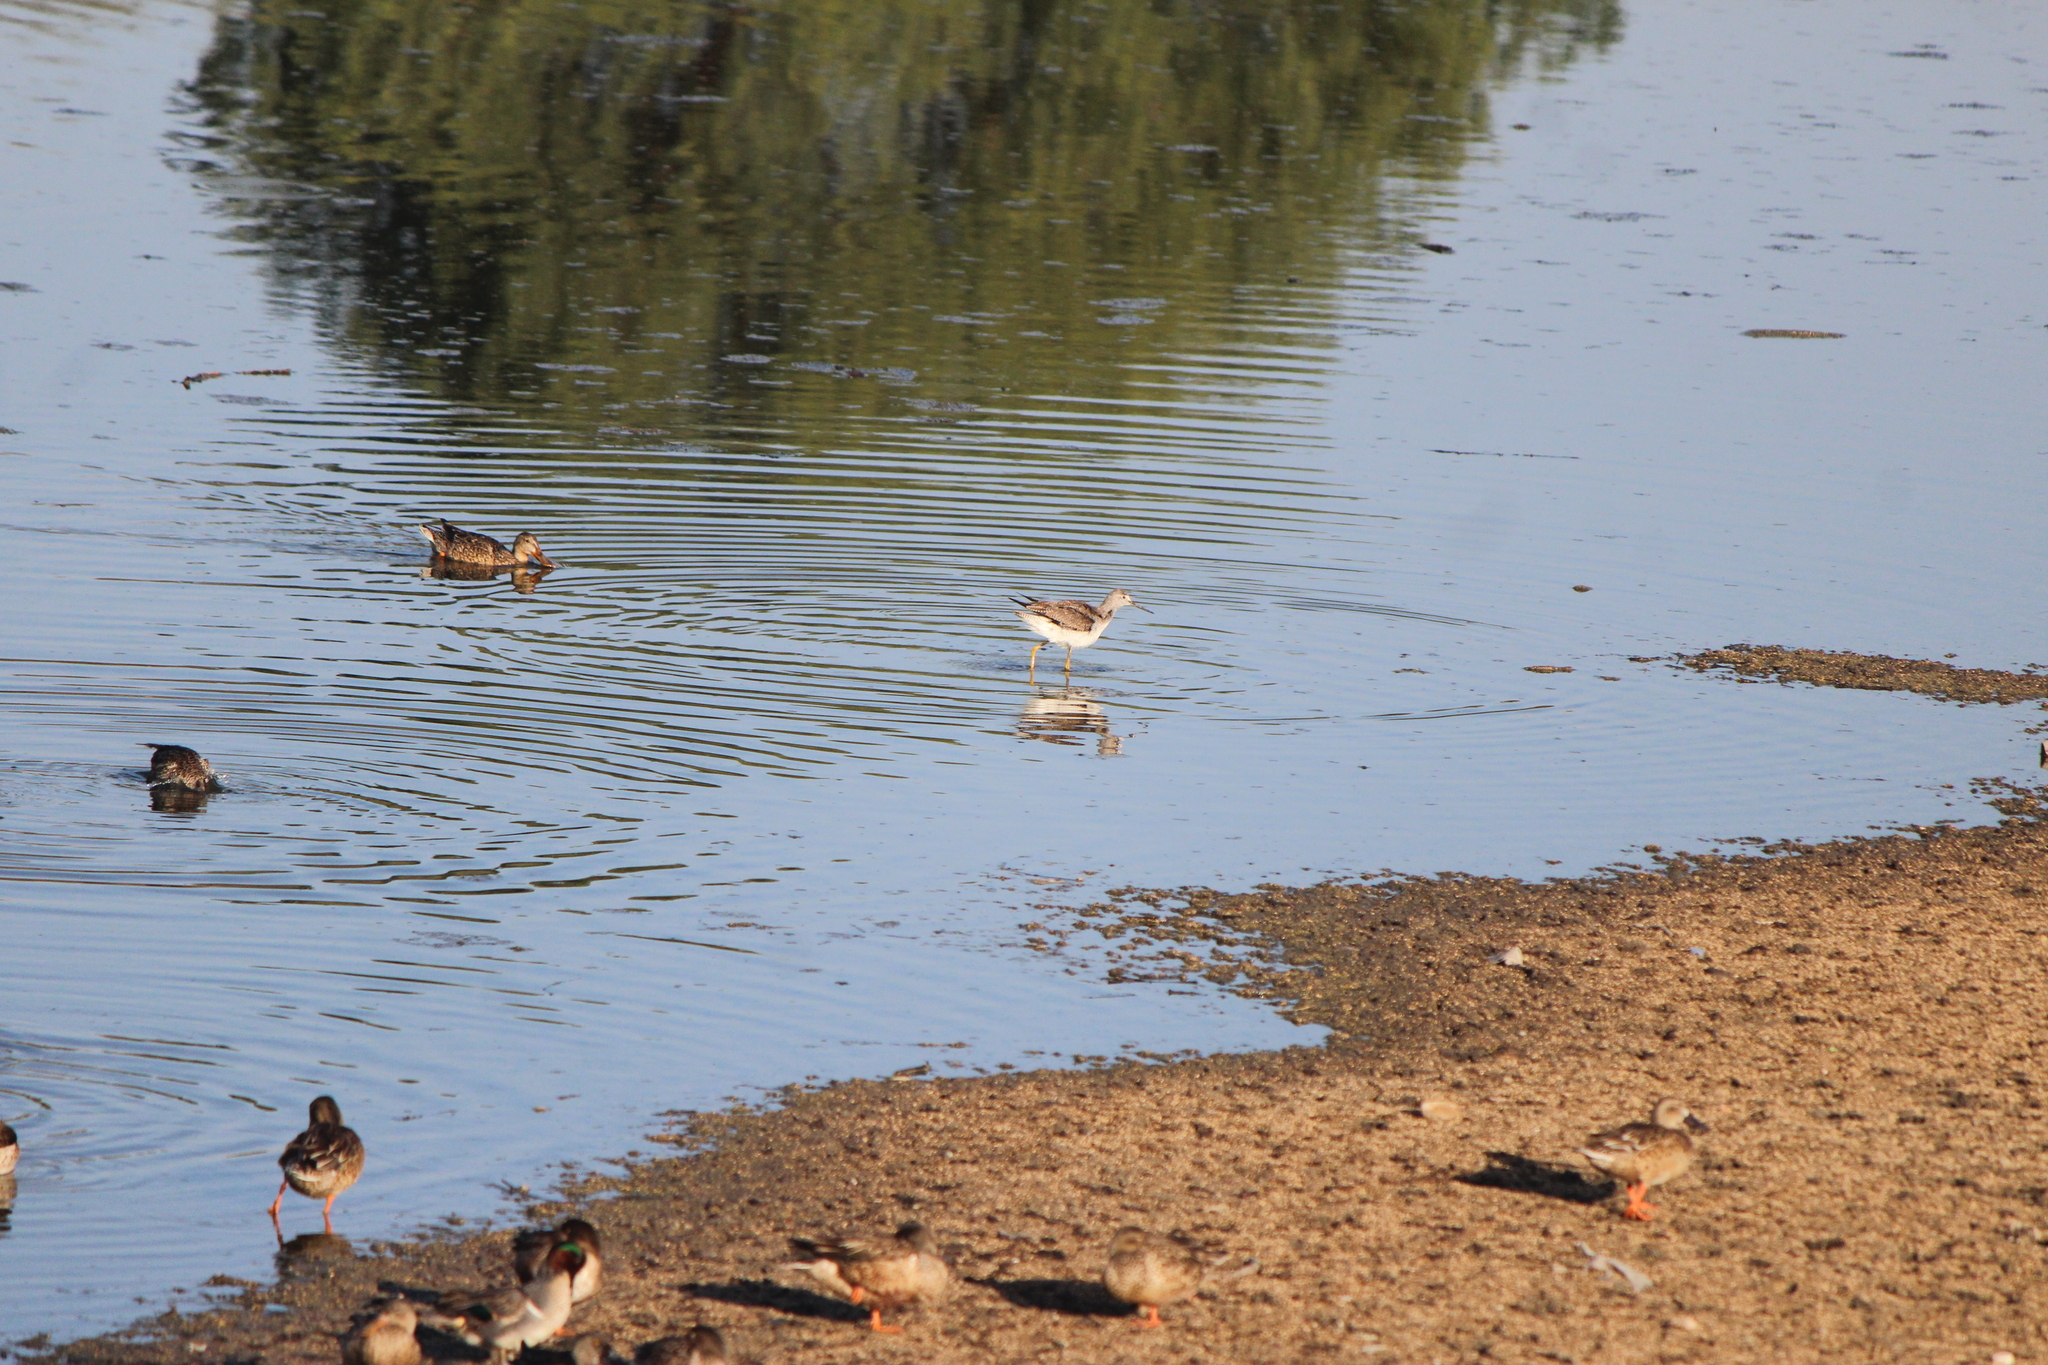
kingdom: Animalia
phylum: Chordata
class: Aves
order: Charadriiformes
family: Scolopacidae
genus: Tringa
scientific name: Tringa melanoleuca
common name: Greater yellowlegs
